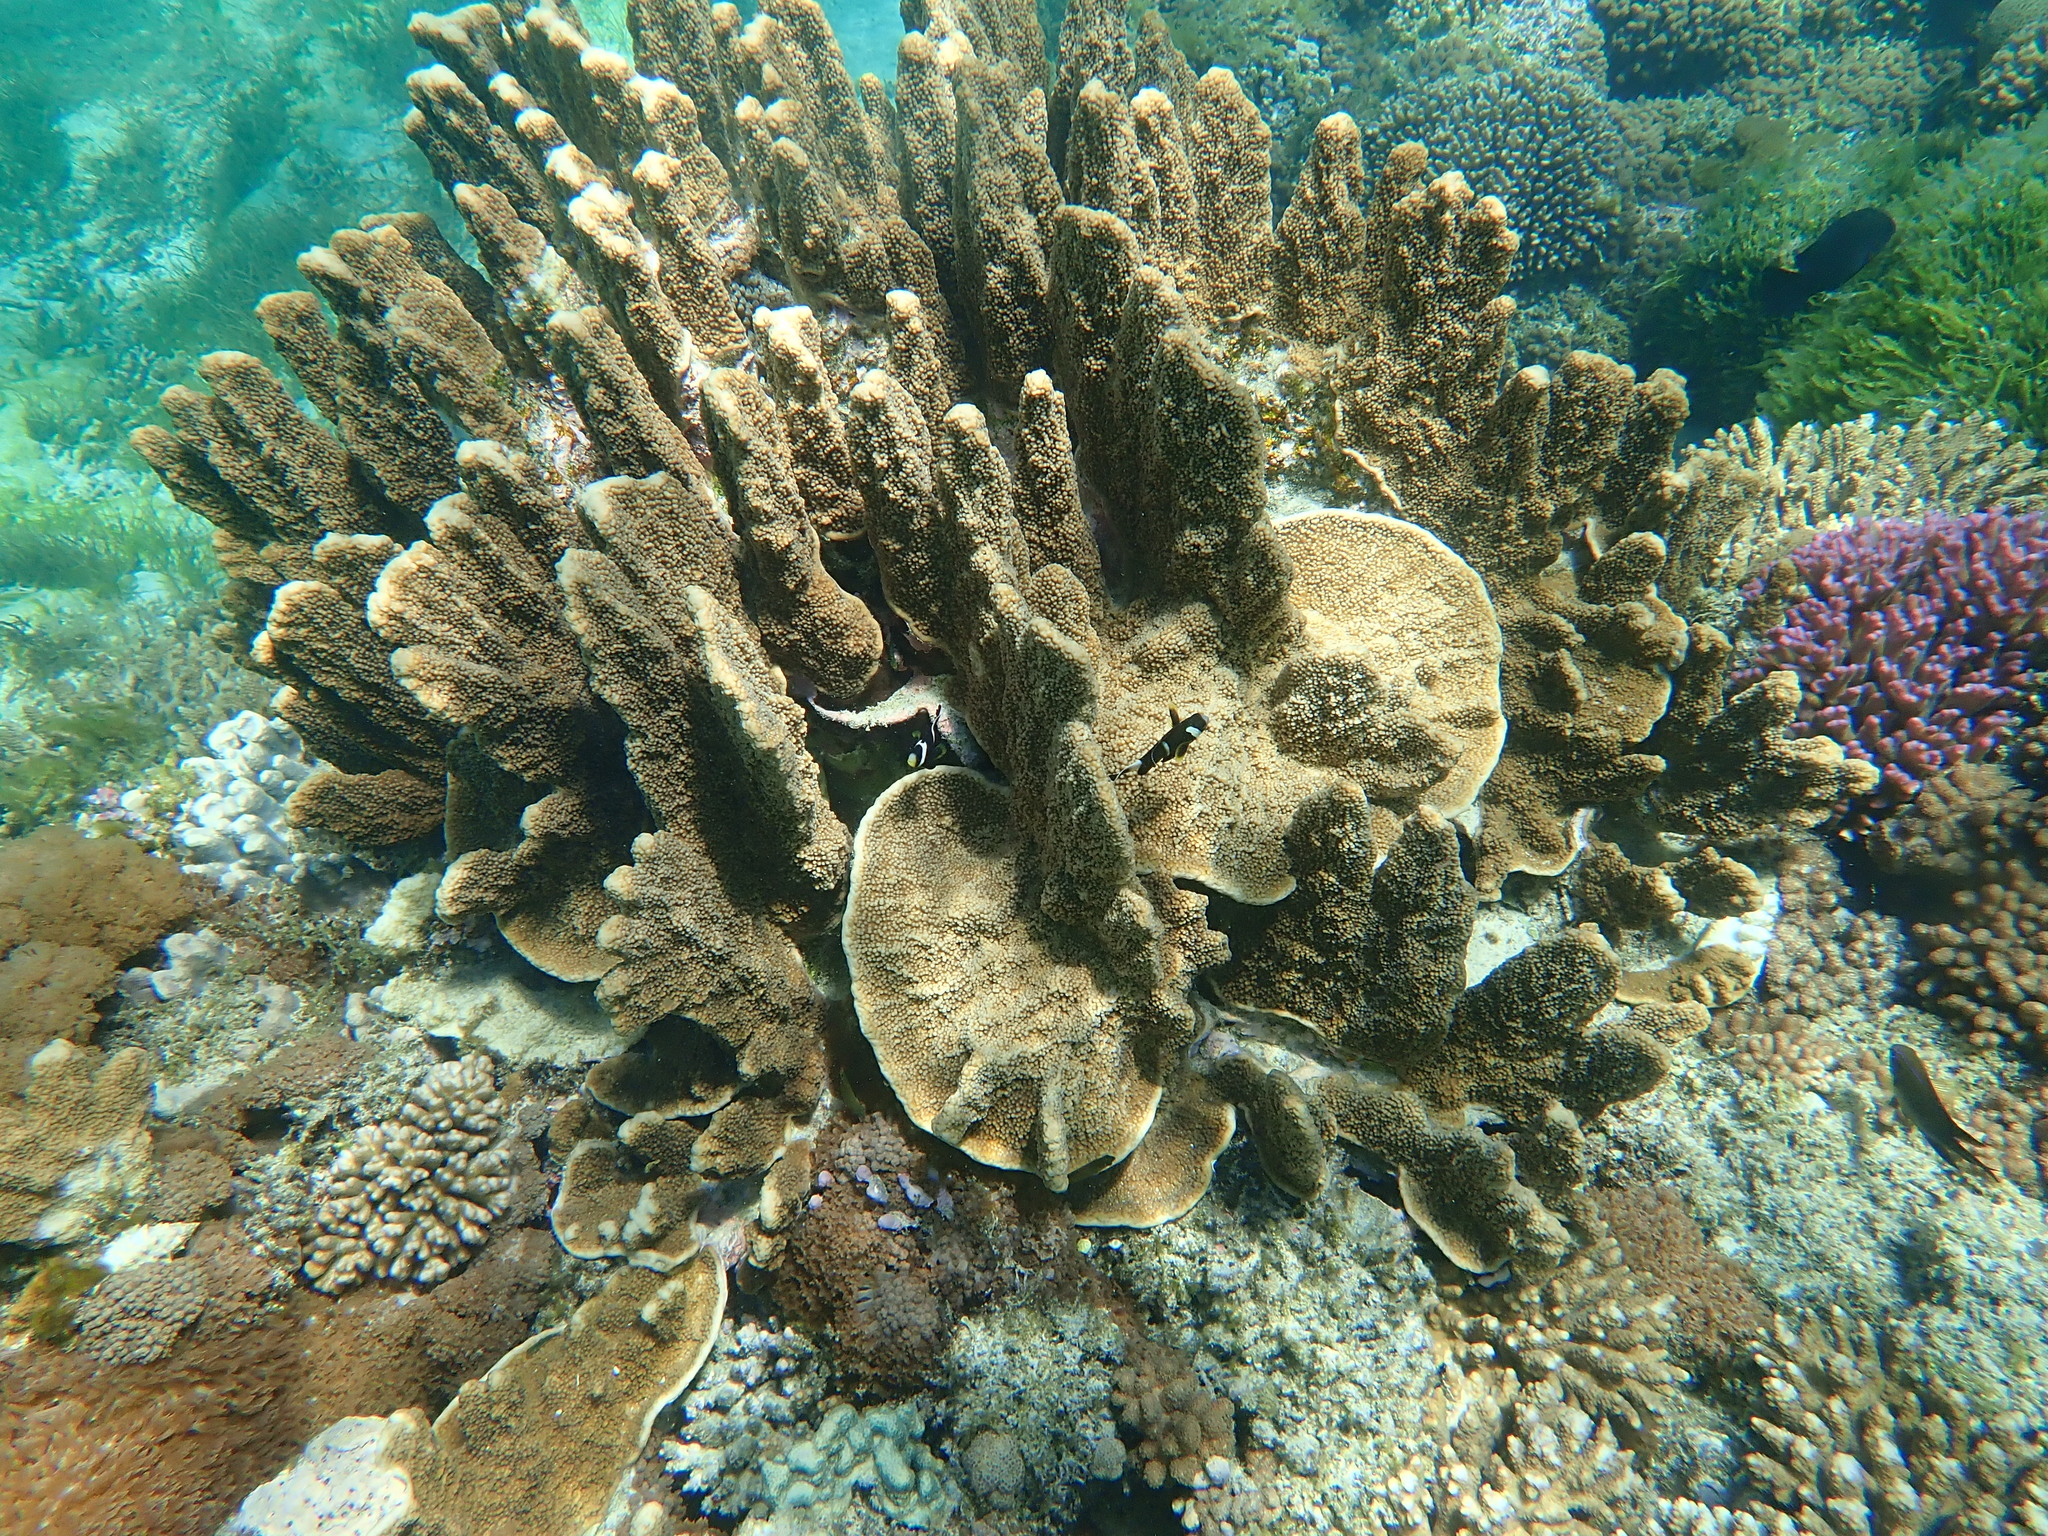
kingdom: Animalia
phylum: Cnidaria
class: Anthozoa
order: Scleractinia
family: Acroporidae
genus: Isopora
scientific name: Isopora elizabethensis
